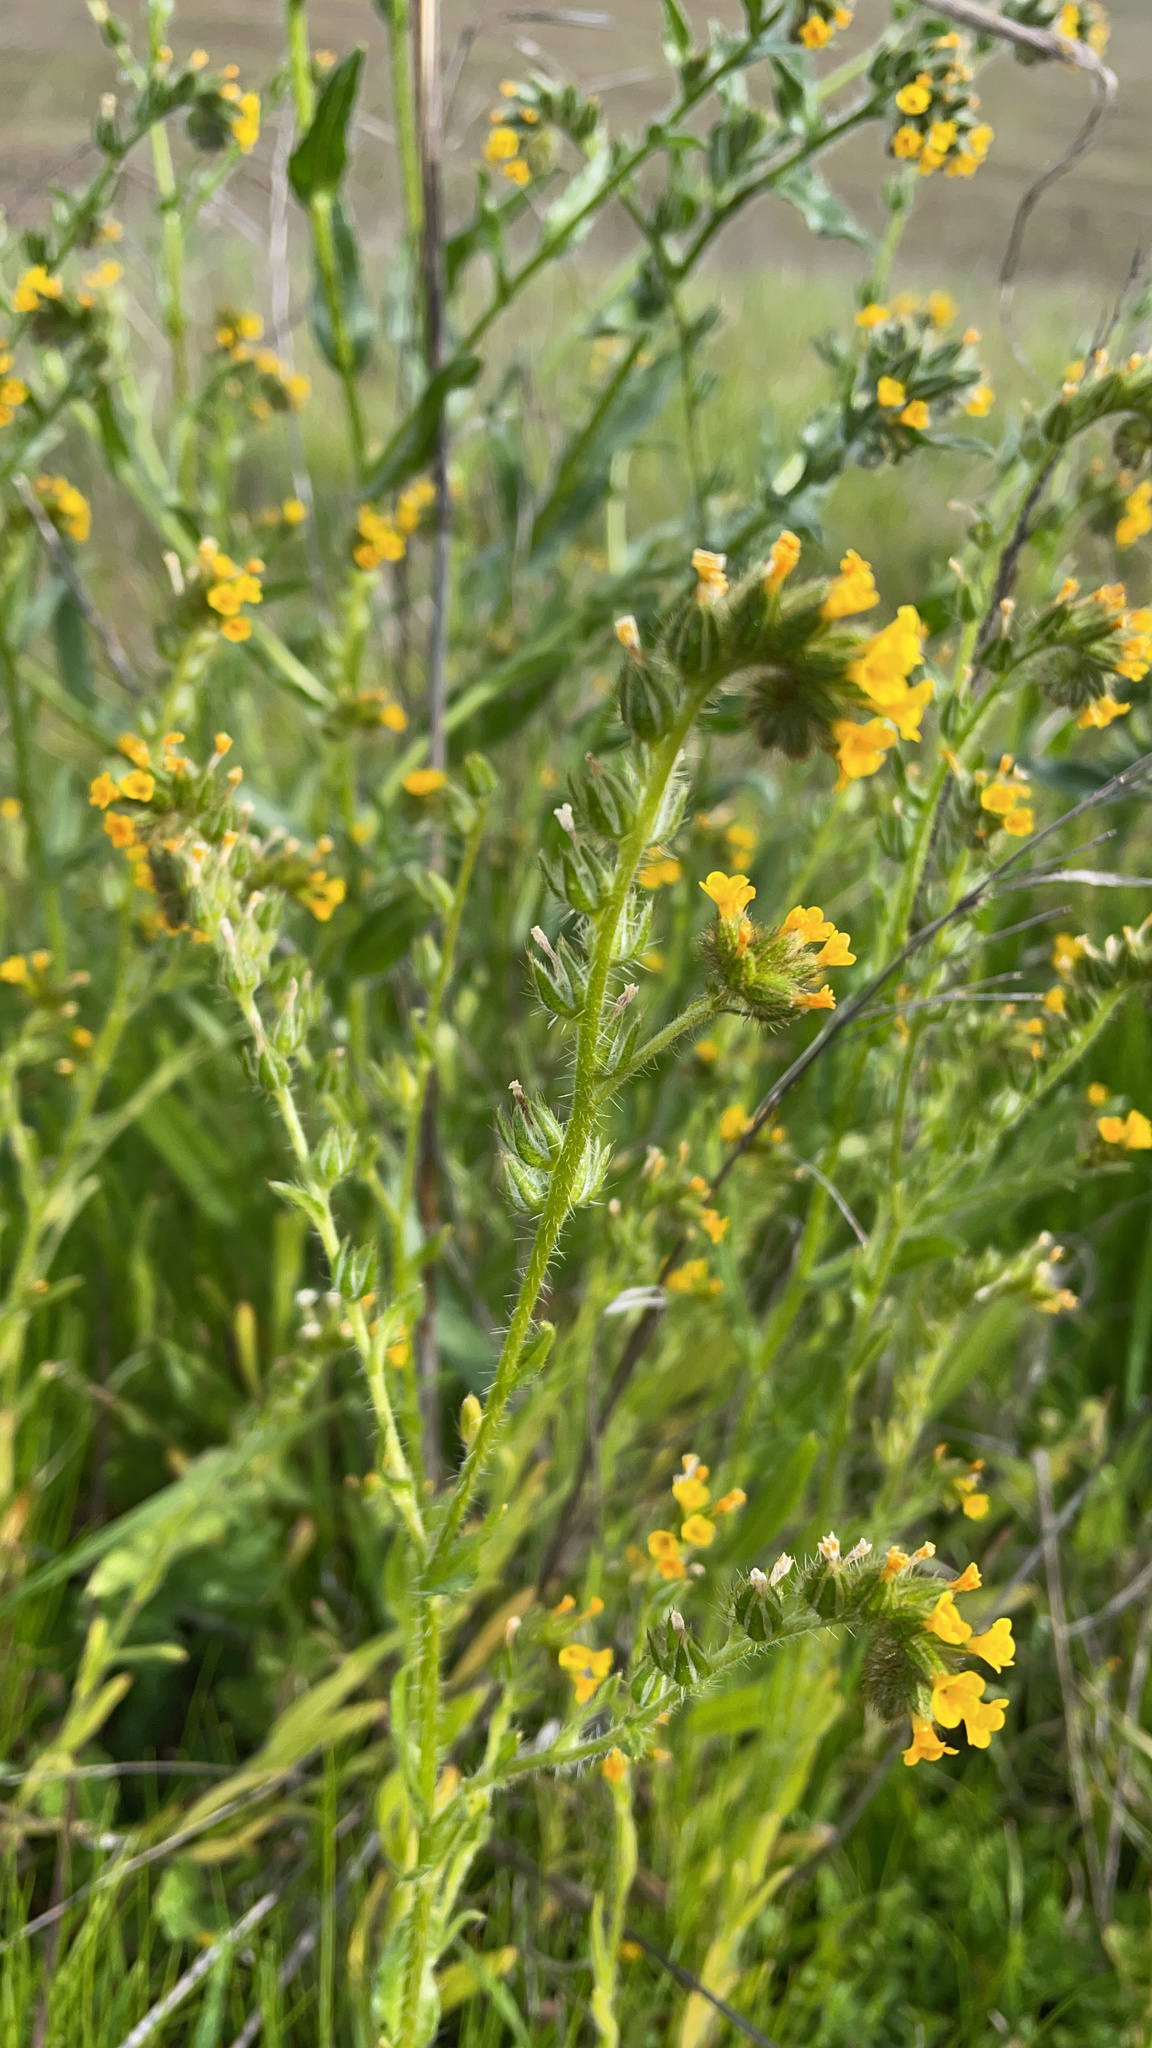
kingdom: Plantae
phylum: Tracheophyta
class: Magnoliopsida
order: Boraginales
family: Boraginaceae
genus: Amsinckia
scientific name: Amsinckia menziesii
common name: Menzies' fiddleneck
